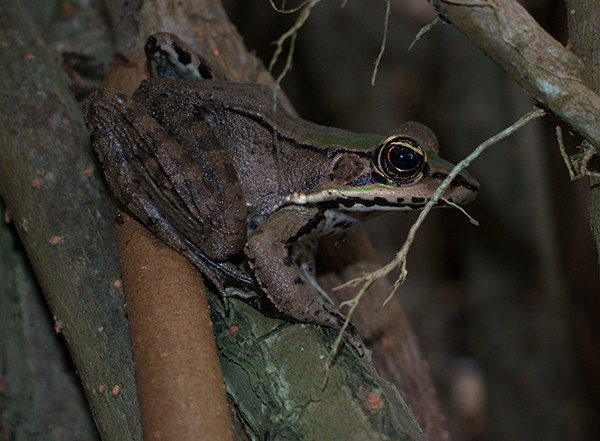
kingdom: Animalia
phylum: Chordata
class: Amphibia
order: Anura
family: Ranidae
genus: Lithobates
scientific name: Lithobates vaillanti
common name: Vaillant's frog
